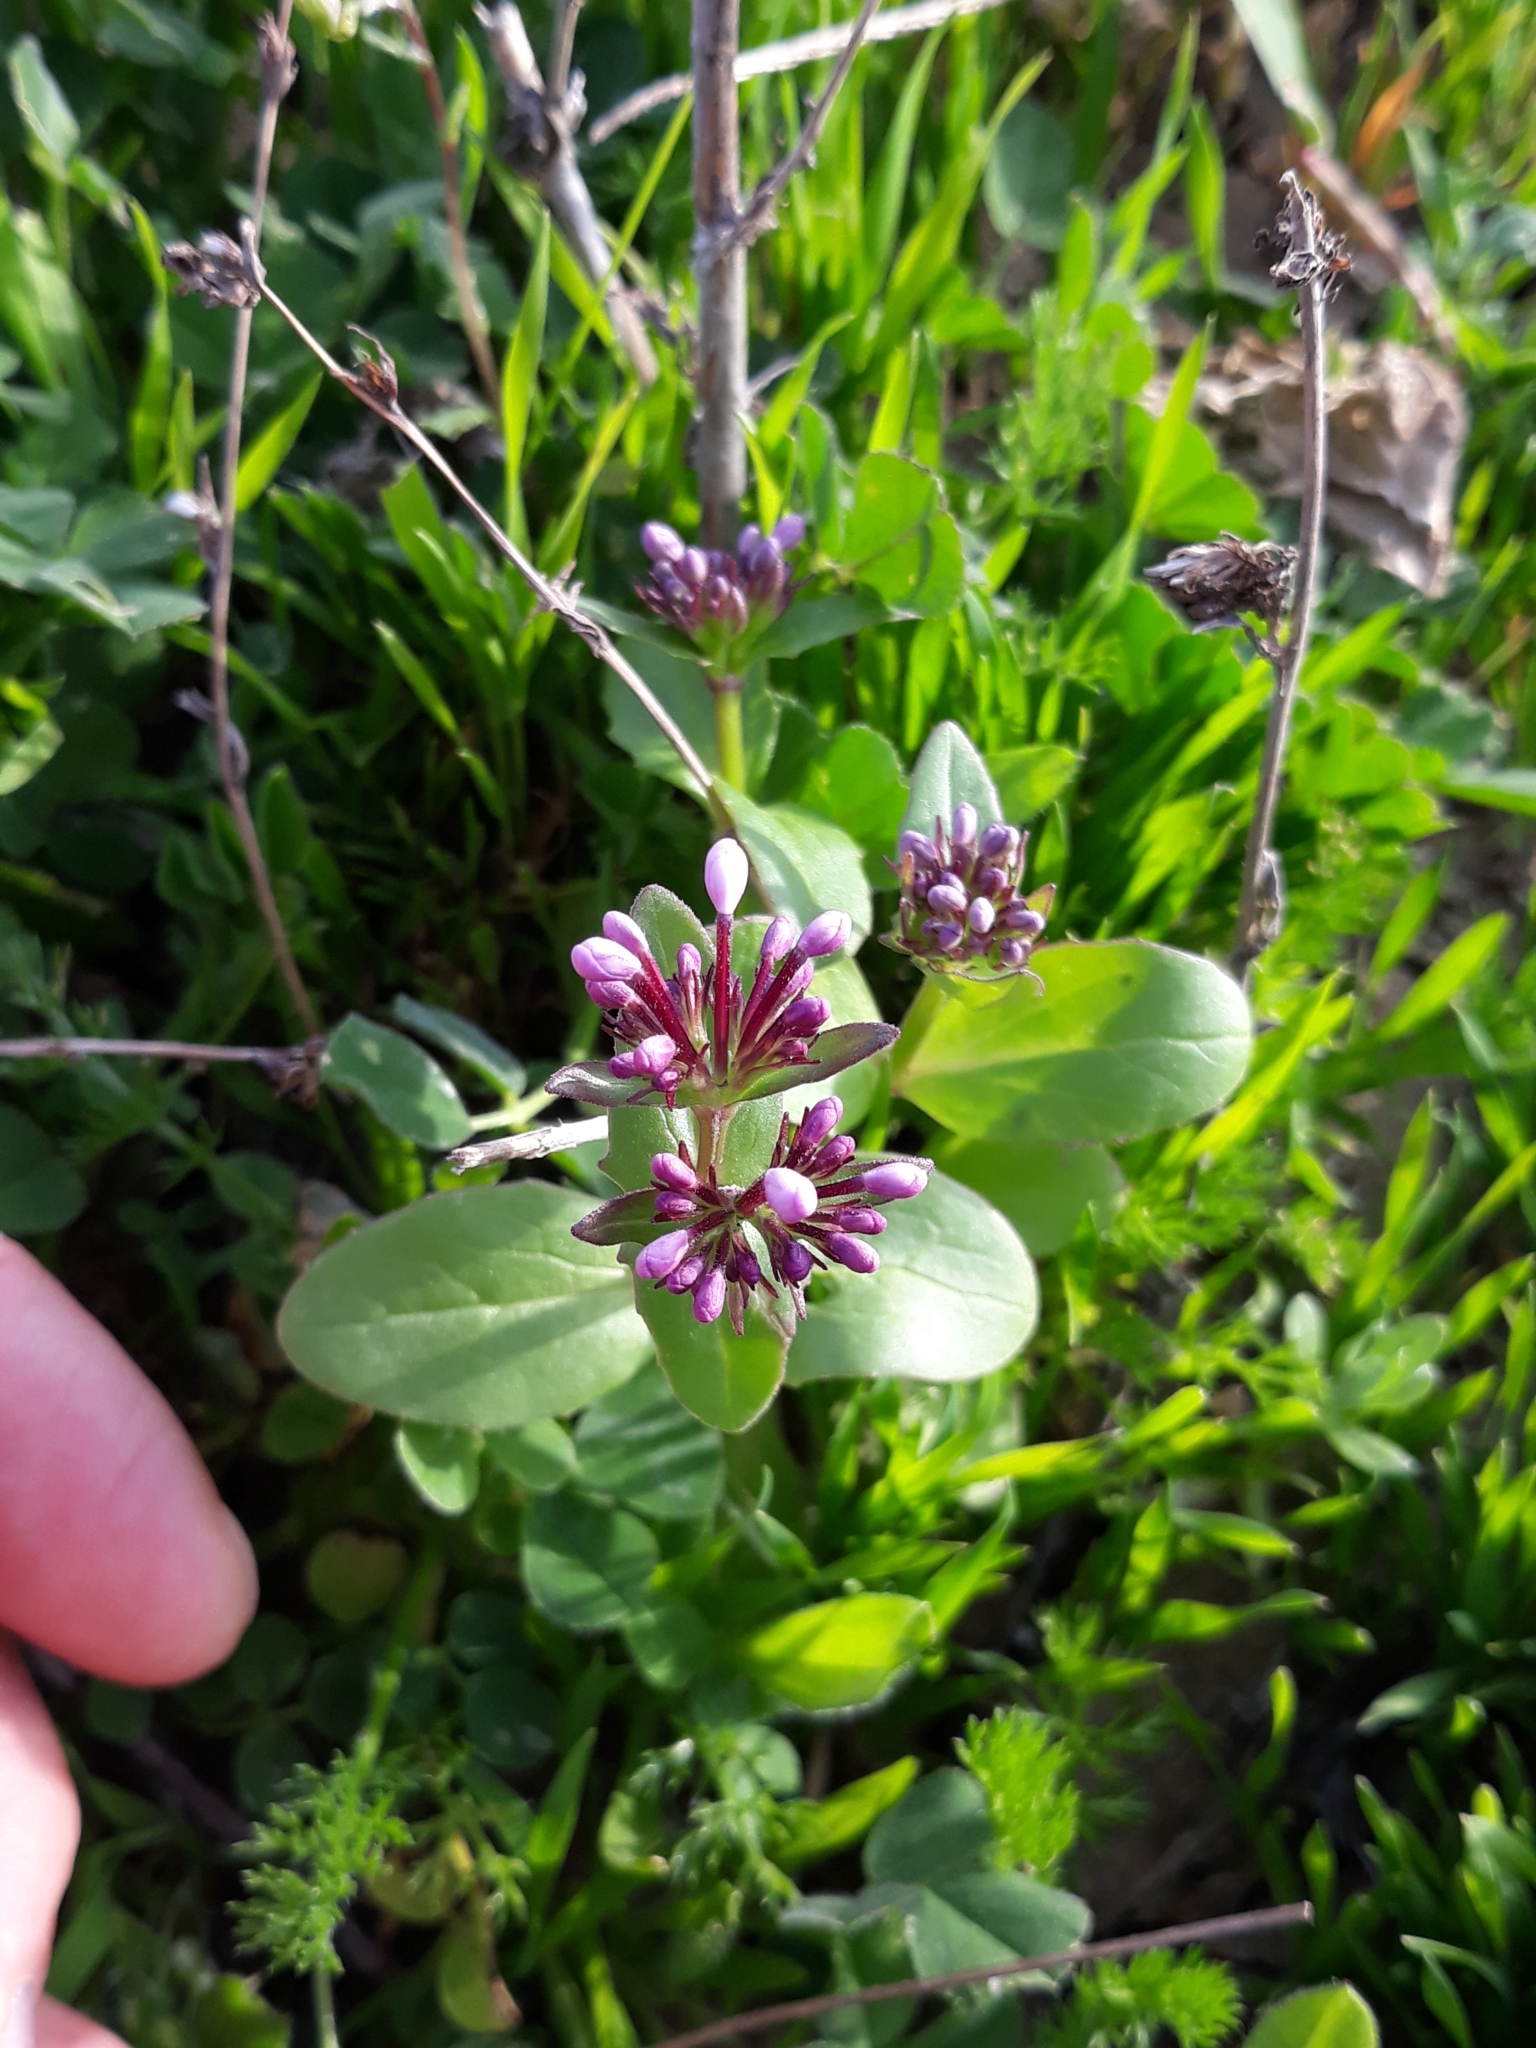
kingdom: Plantae
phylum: Tracheophyta
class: Magnoliopsida
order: Dipsacales
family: Caprifoliaceae
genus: Fedia
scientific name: Fedia graciliflora
